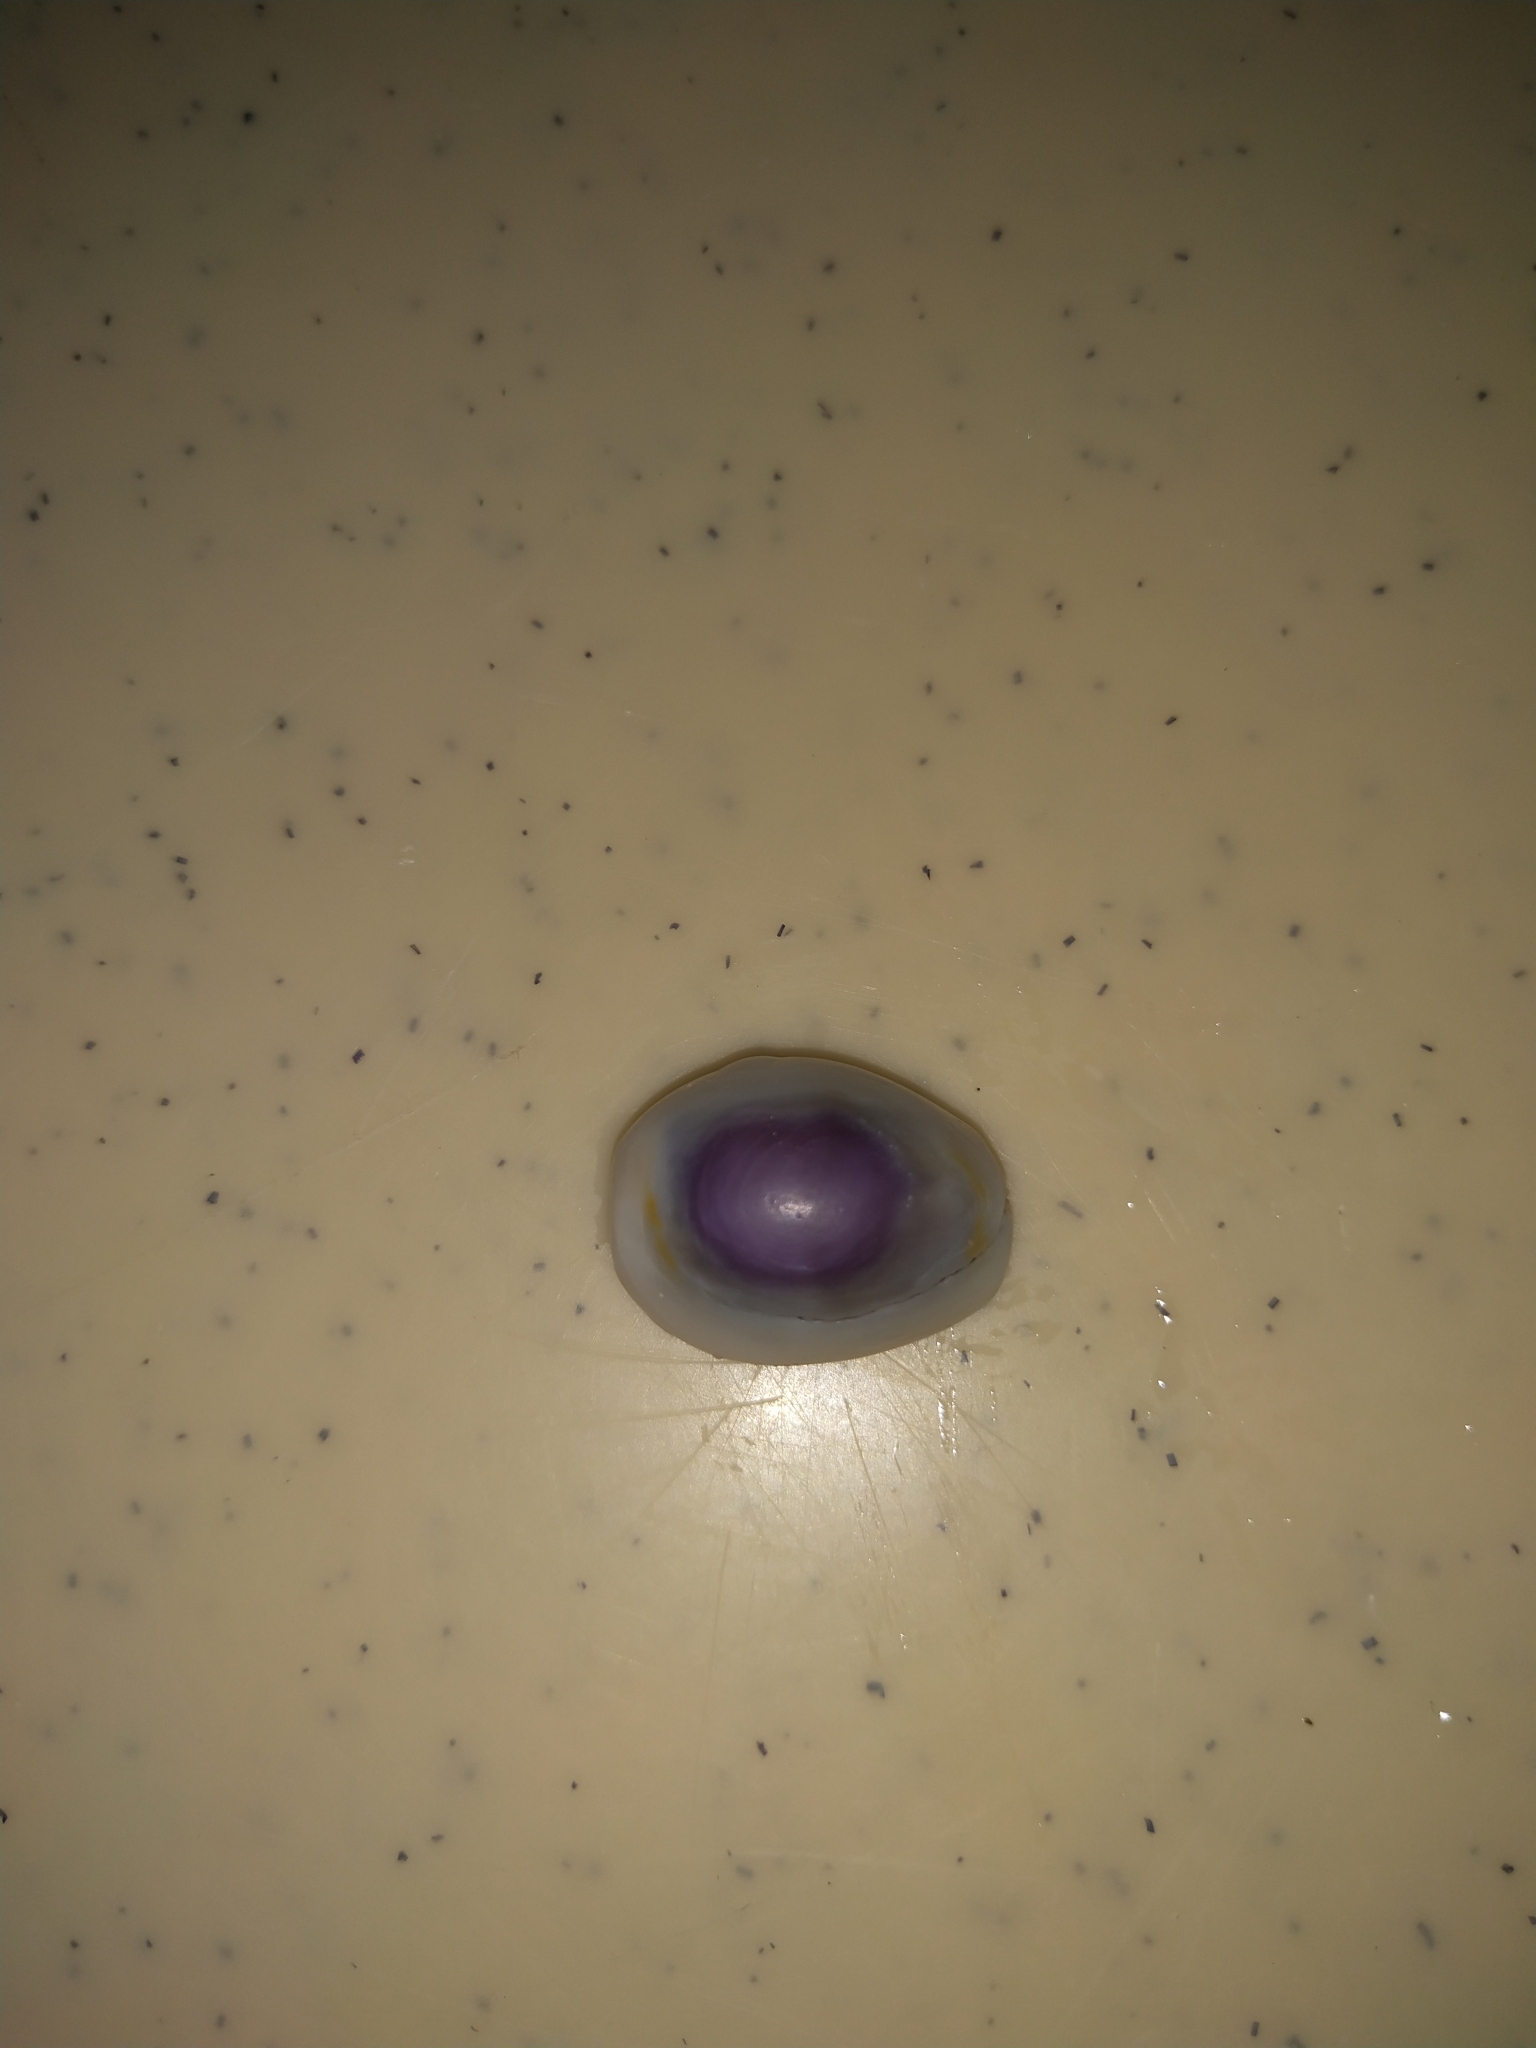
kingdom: Animalia
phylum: Mollusca
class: Gastropoda
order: Littorinimorpha
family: Cypraeidae
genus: Monetaria
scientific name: Monetaria annulus
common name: Ring cowrie
